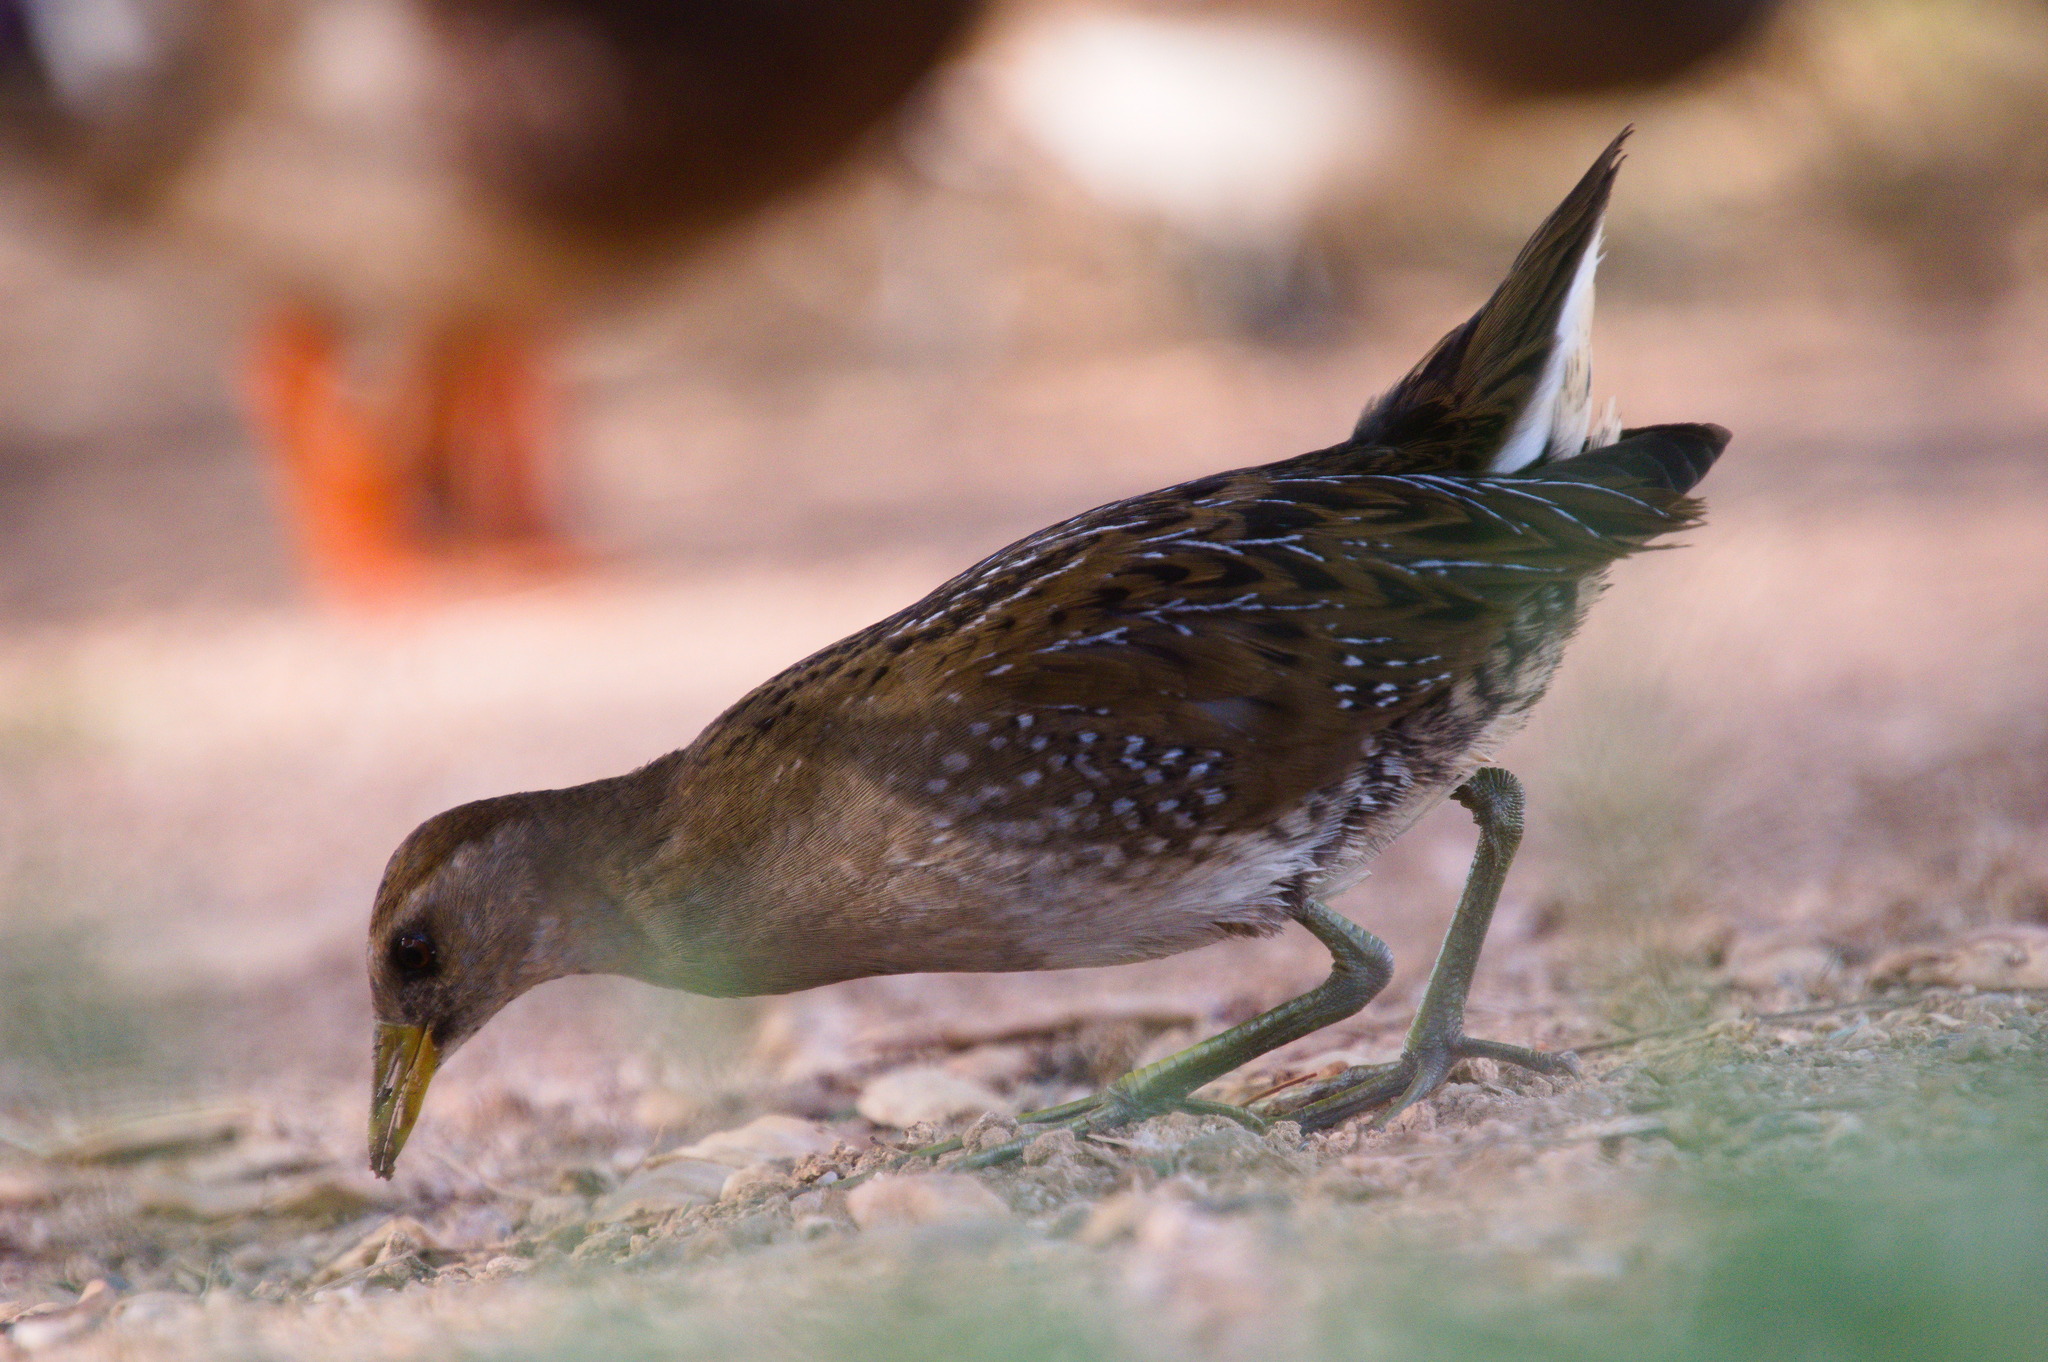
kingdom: Animalia
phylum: Chordata
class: Aves
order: Gruiformes
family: Rallidae
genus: Porzana
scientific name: Porzana carolina
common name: Sora
